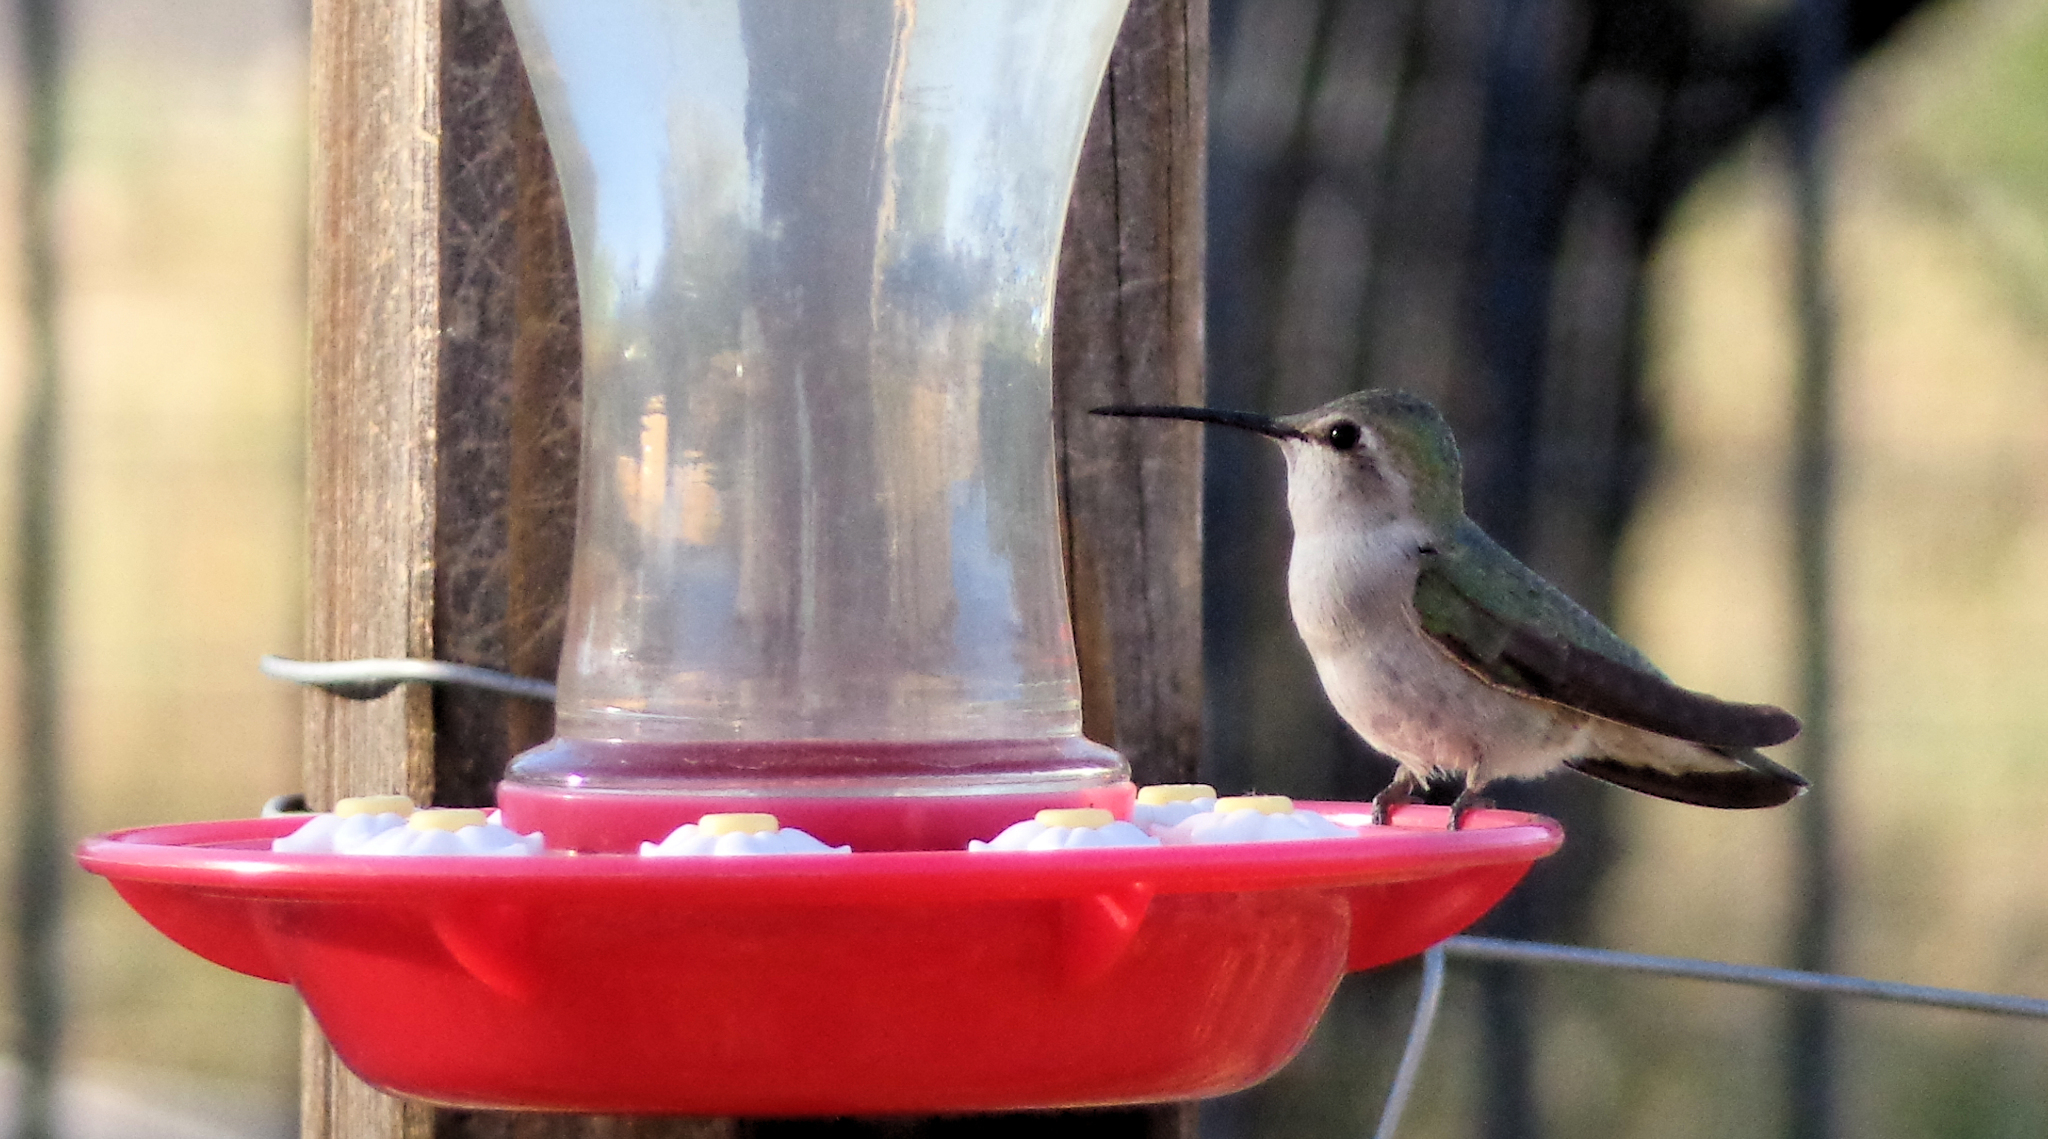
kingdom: Animalia
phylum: Chordata
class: Aves
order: Apodiformes
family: Trochilidae
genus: Archilochus
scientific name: Archilochus alexandri
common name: Black-chinned hummingbird
